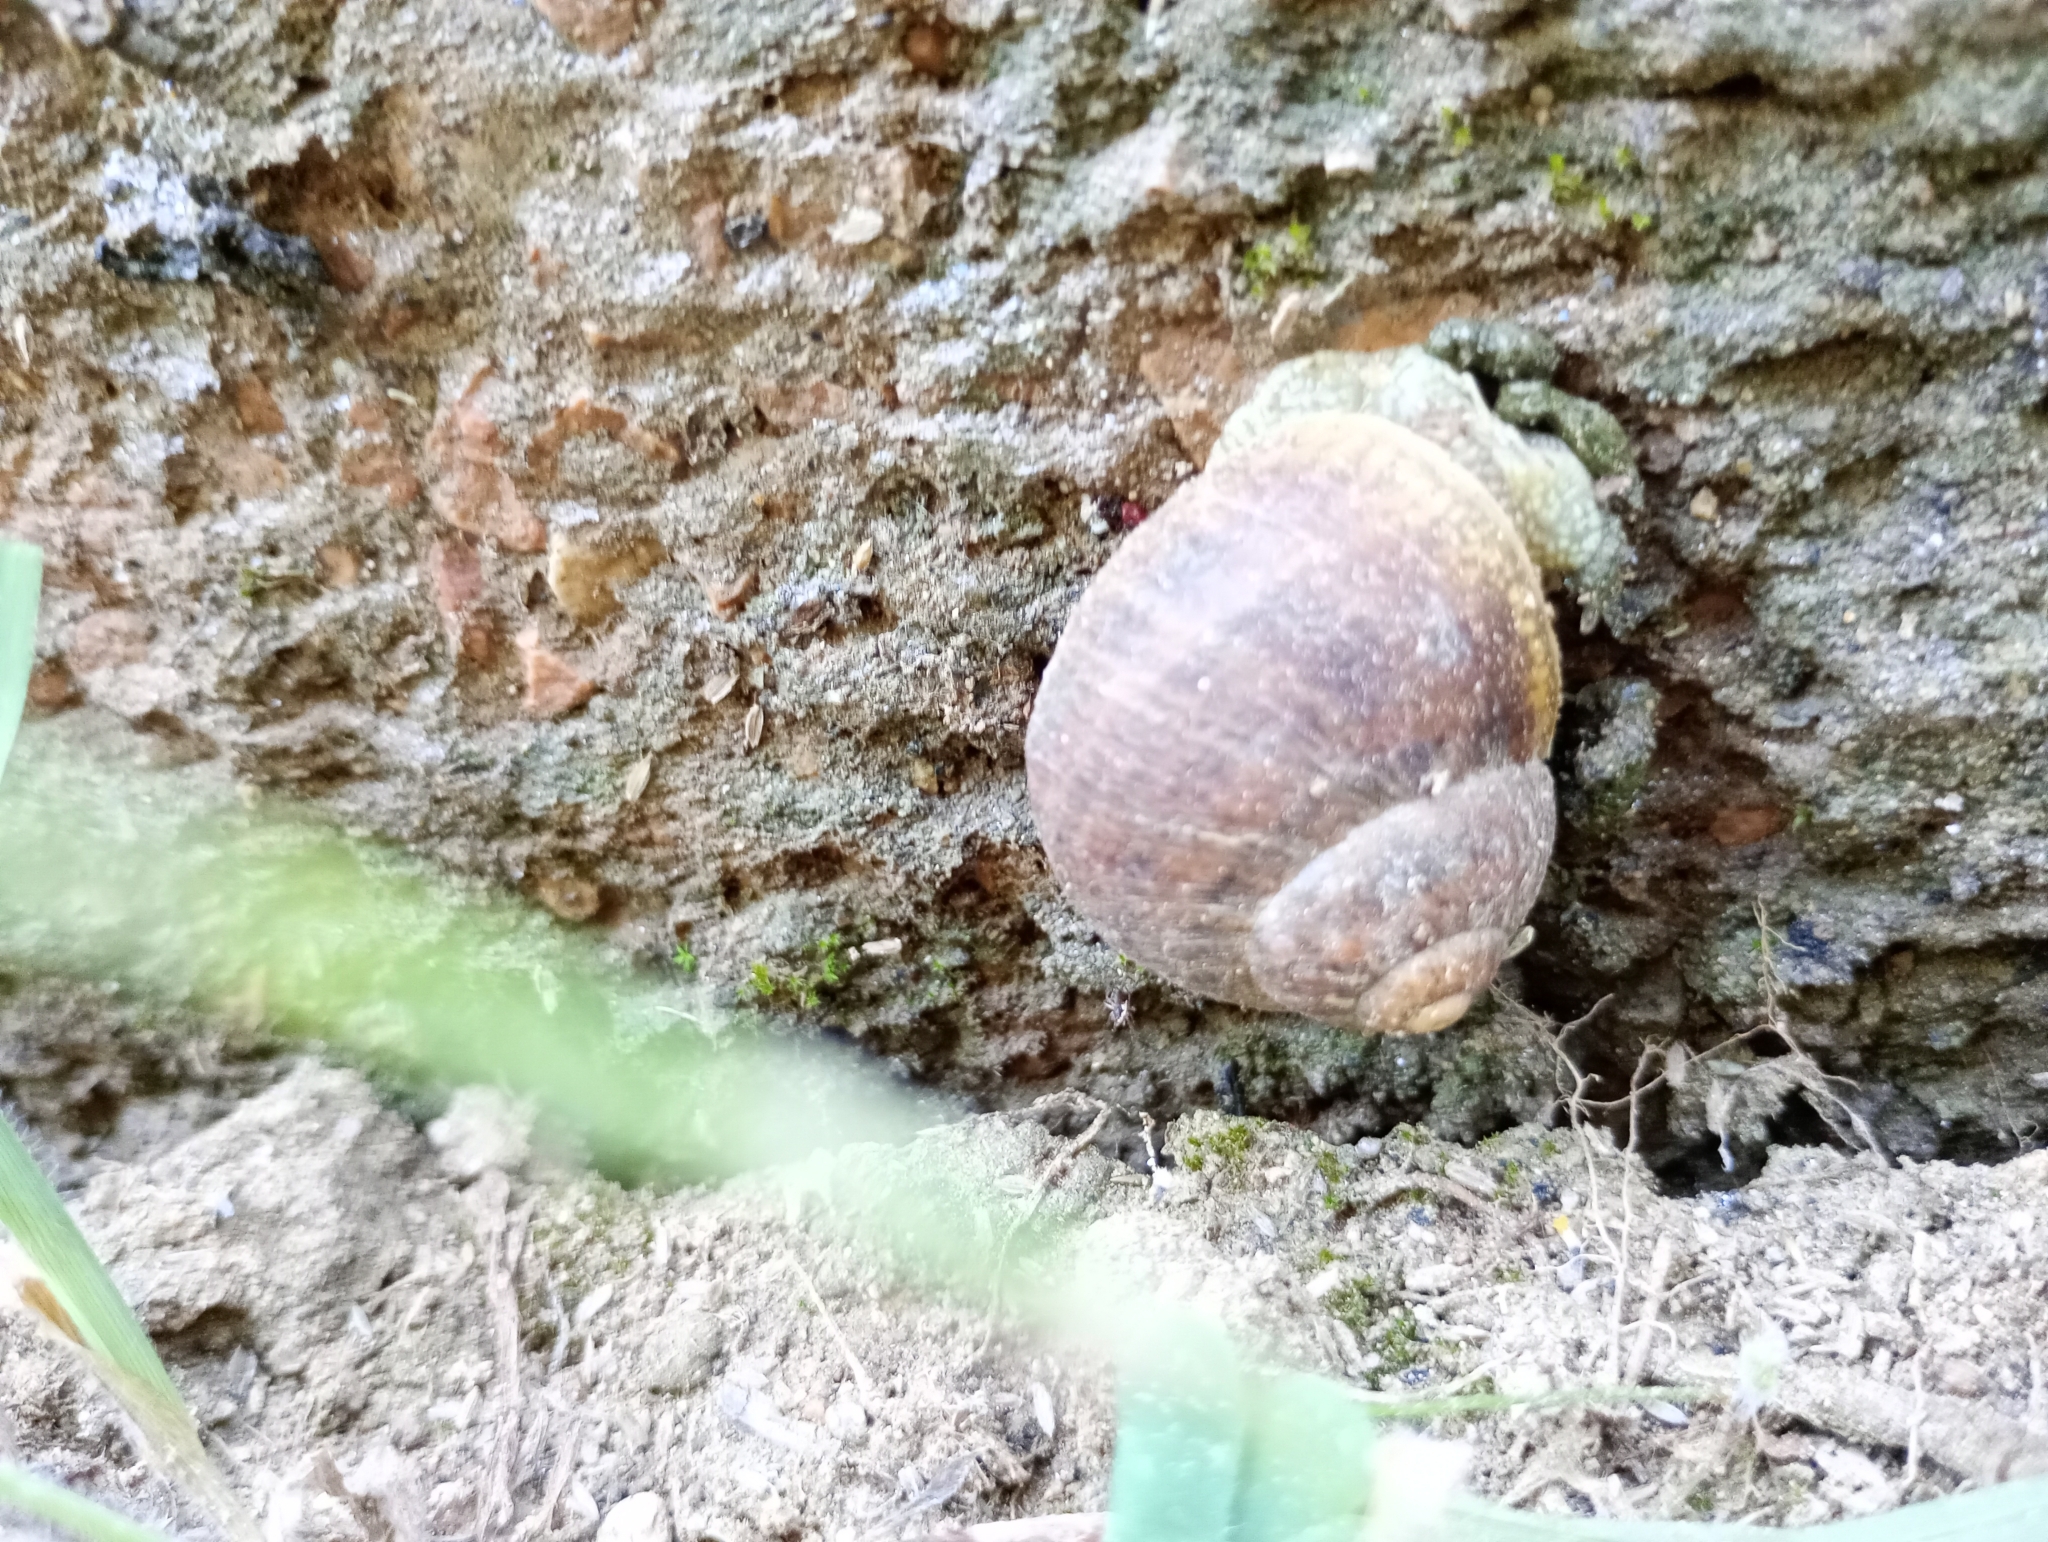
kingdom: Animalia
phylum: Mollusca
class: Gastropoda
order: Stylommatophora
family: Helicidae
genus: Cornu
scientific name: Cornu aspersum
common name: Brown garden snail
